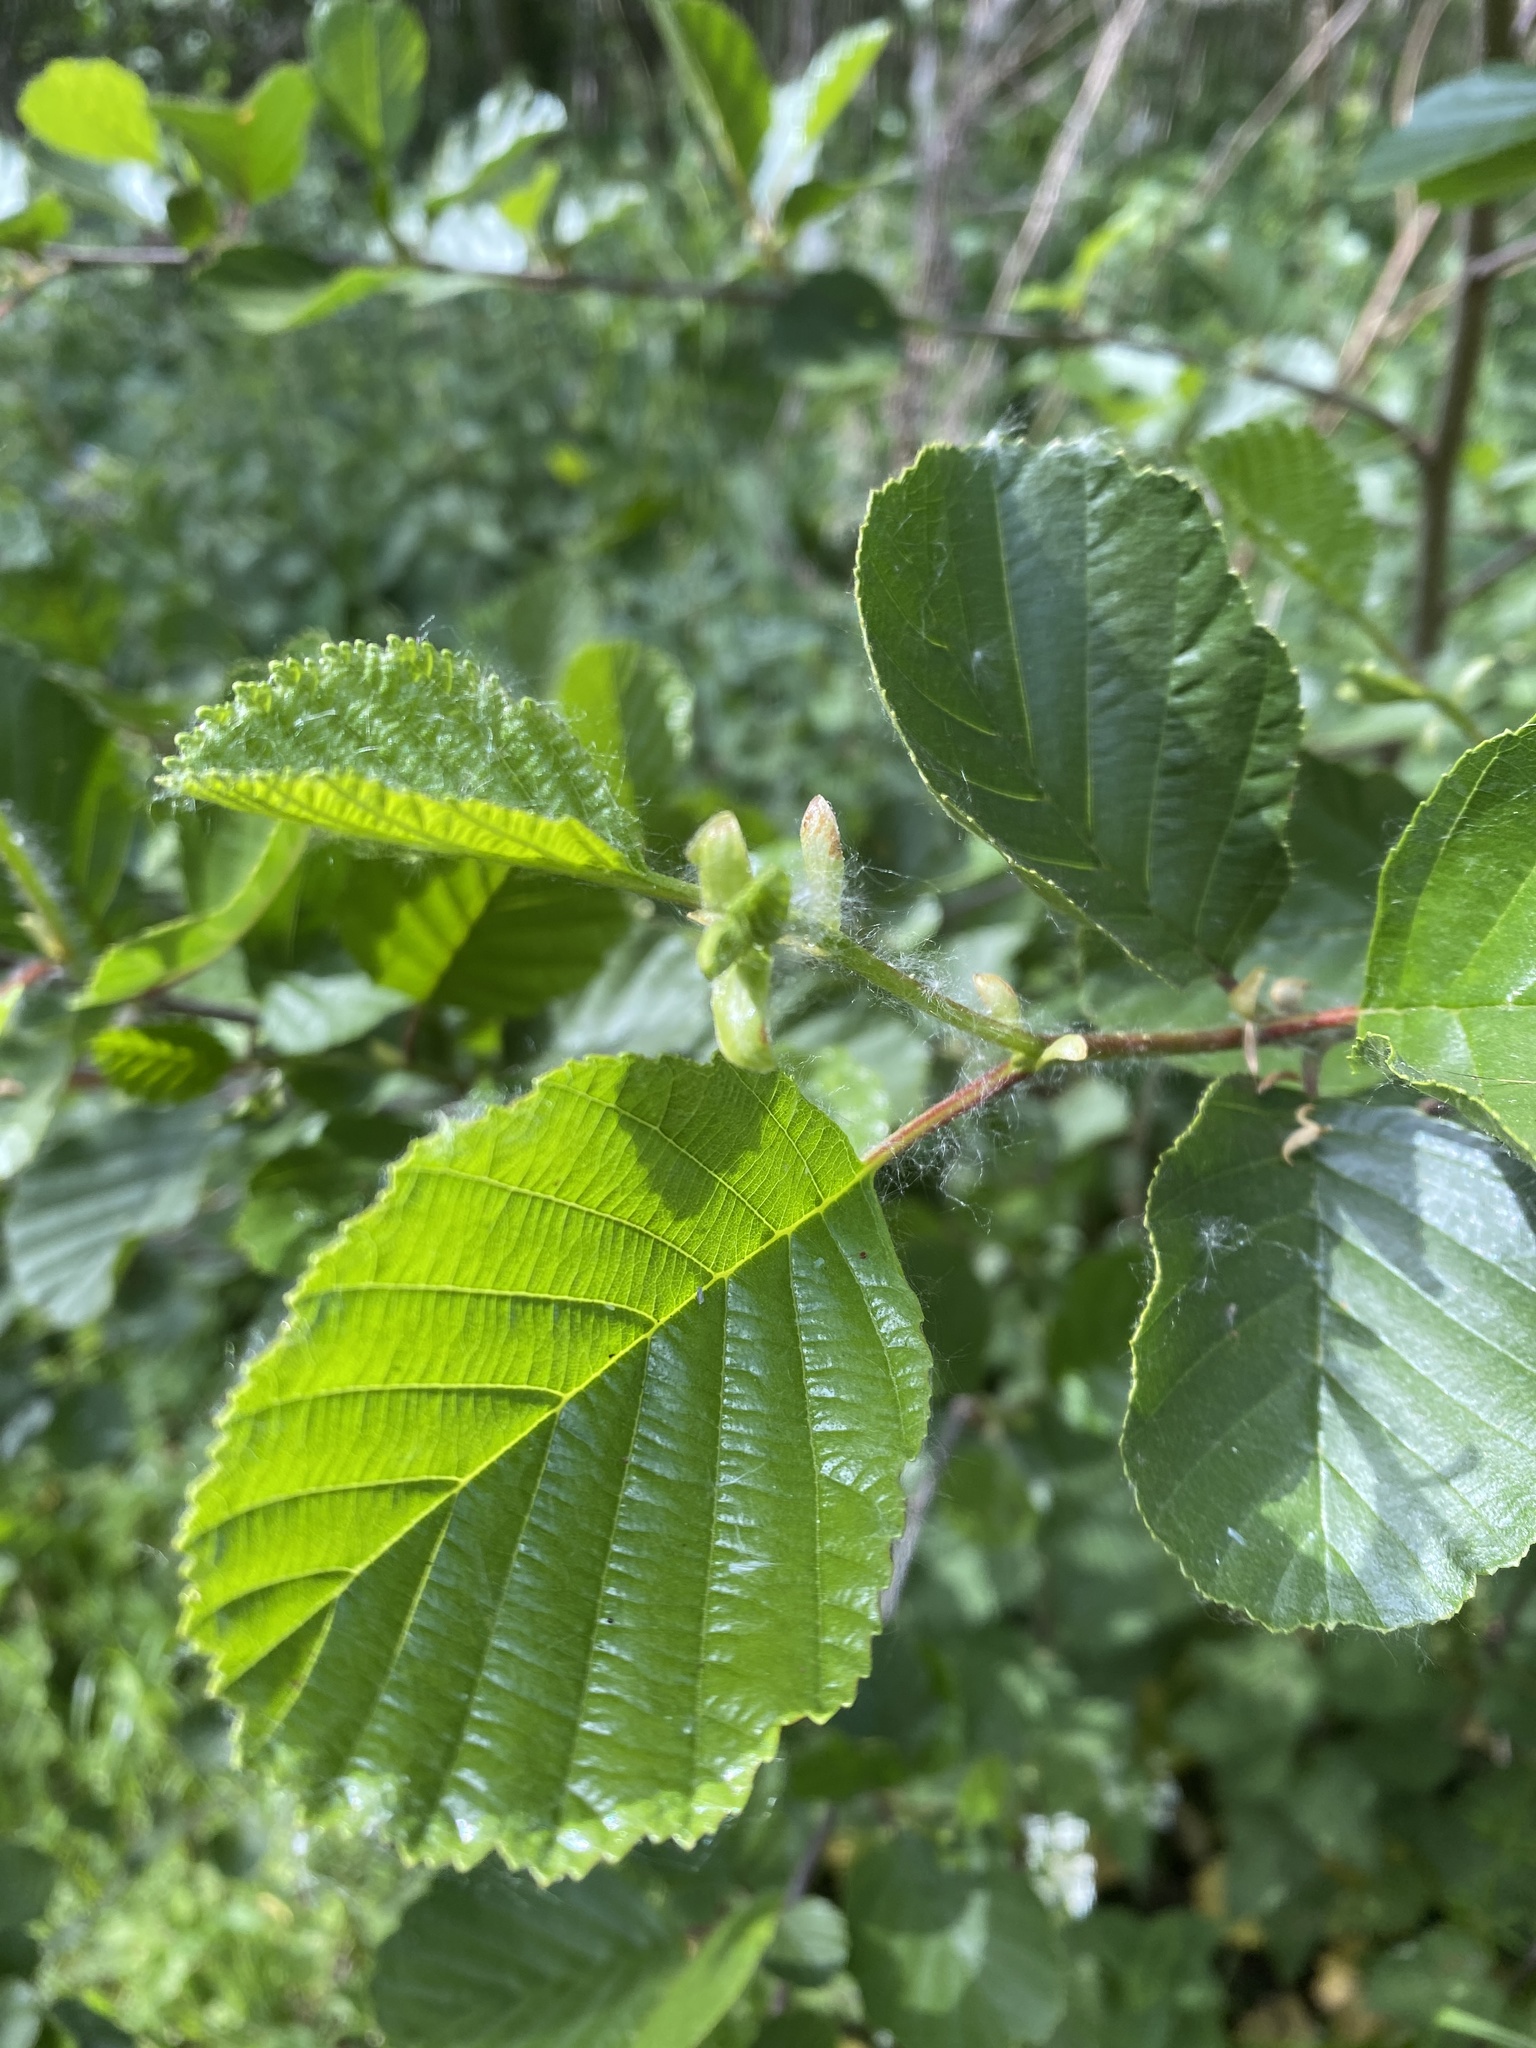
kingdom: Plantae
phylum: Tracheophyta
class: Magnoliopsida
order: Fagales
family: Betulaceae
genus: Alnus
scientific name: Alnus glutinosa
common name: Black alder
